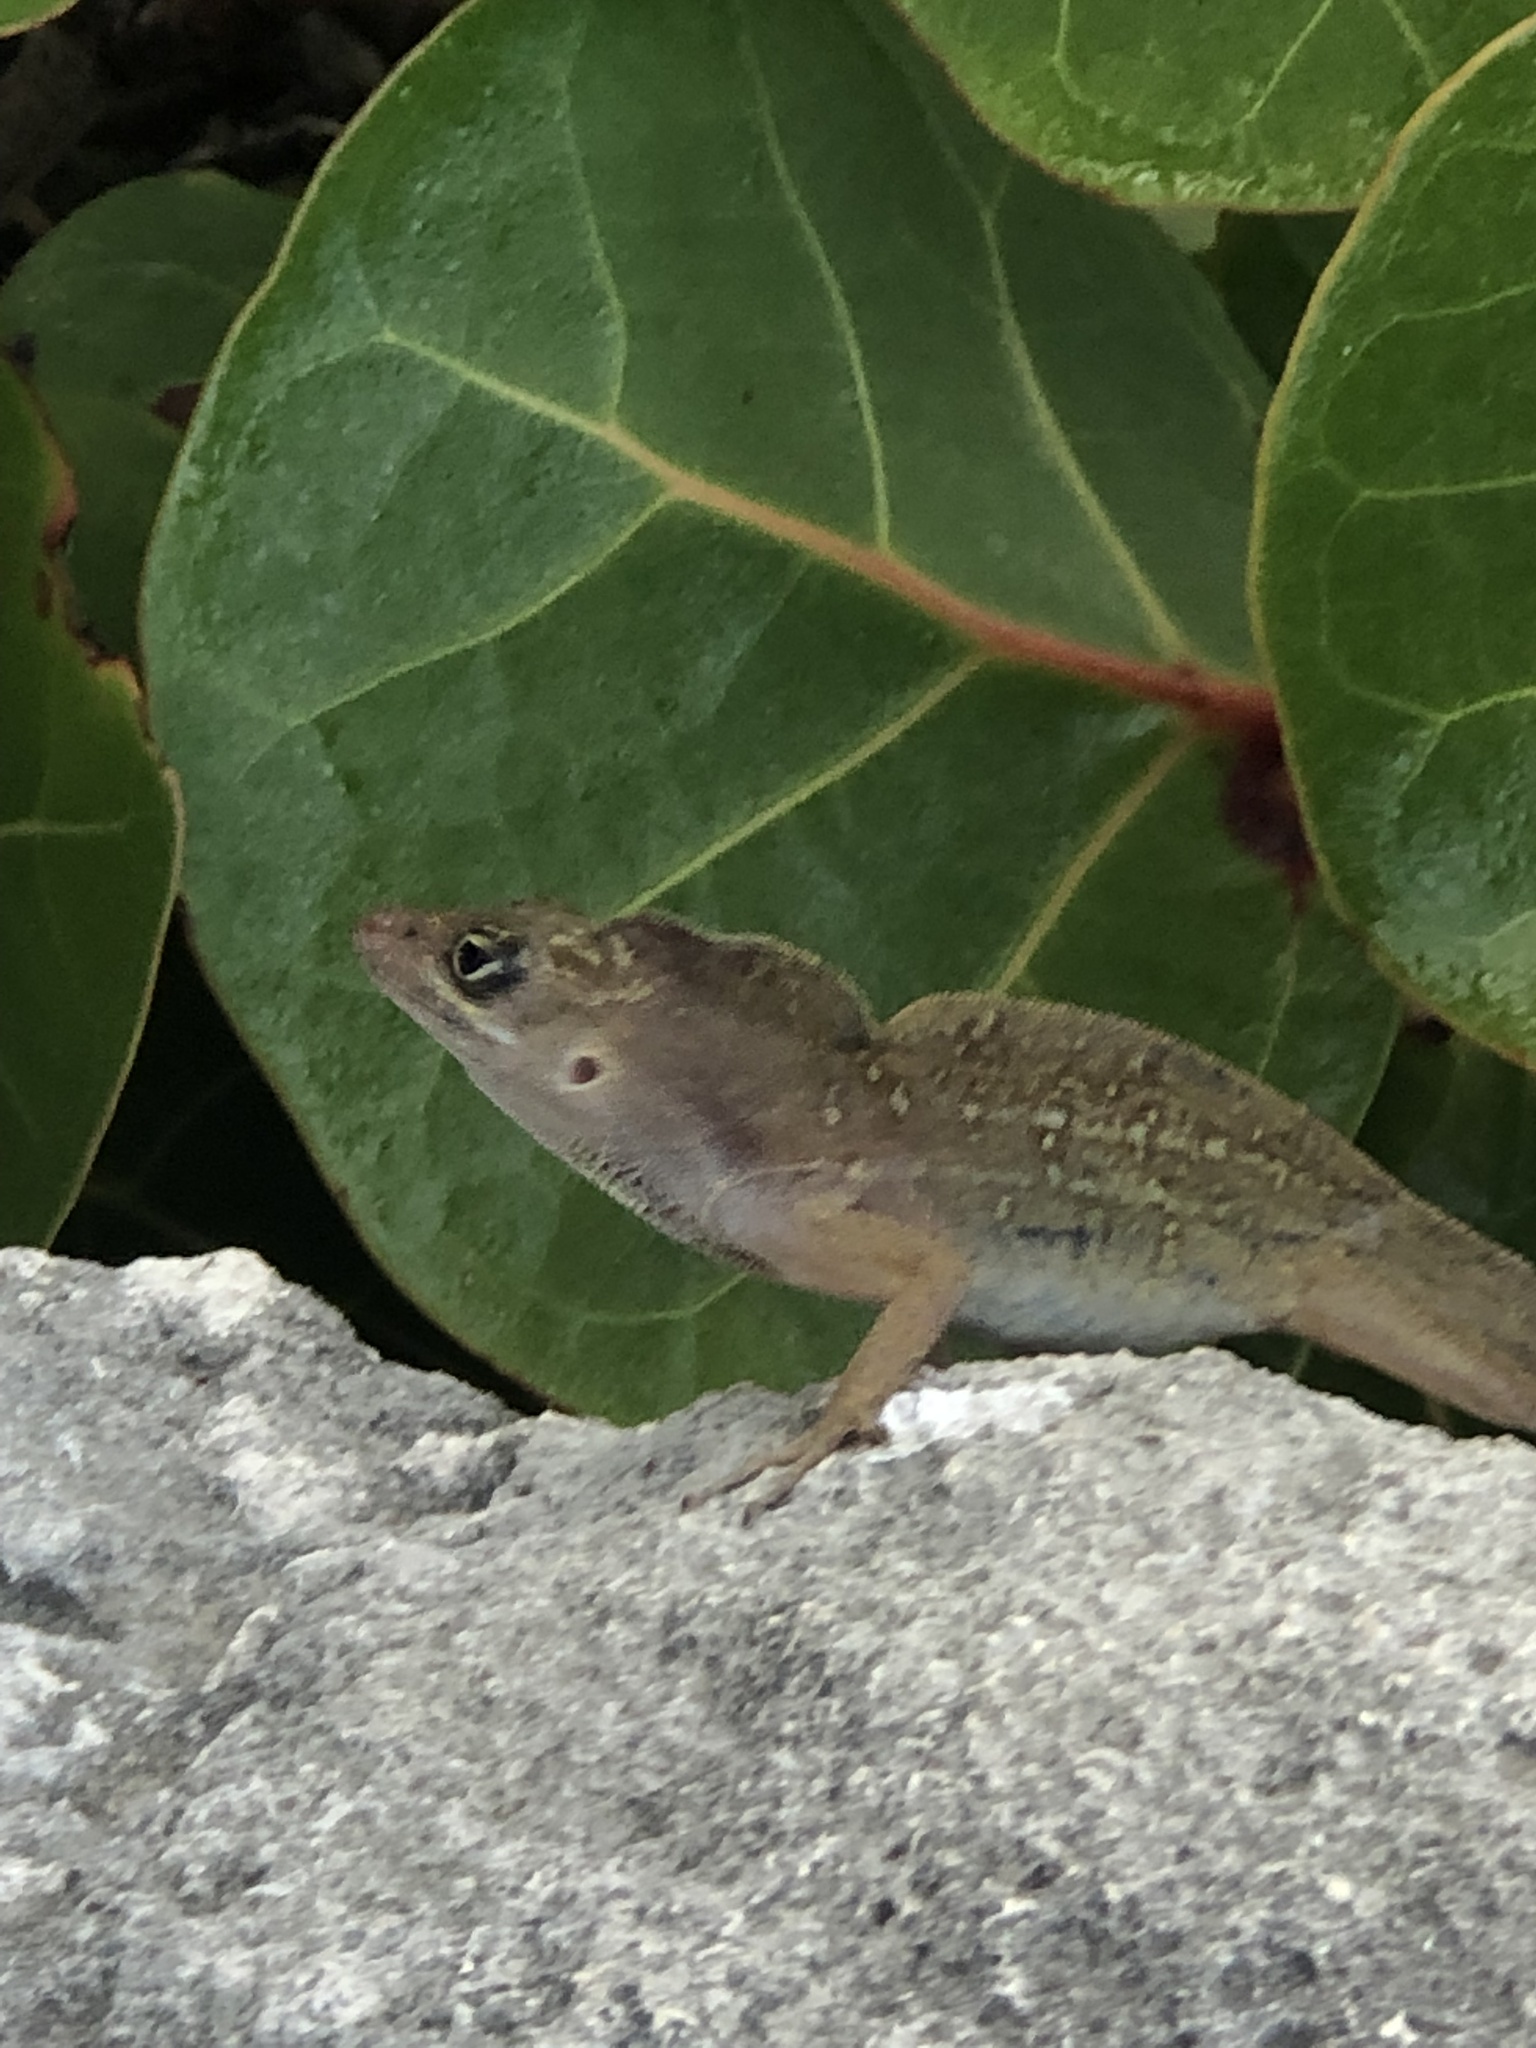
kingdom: Animalia
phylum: Chordata
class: Squamata
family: Dactyloidae
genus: Anolis
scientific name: Anolis sagrei
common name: Brown anole
